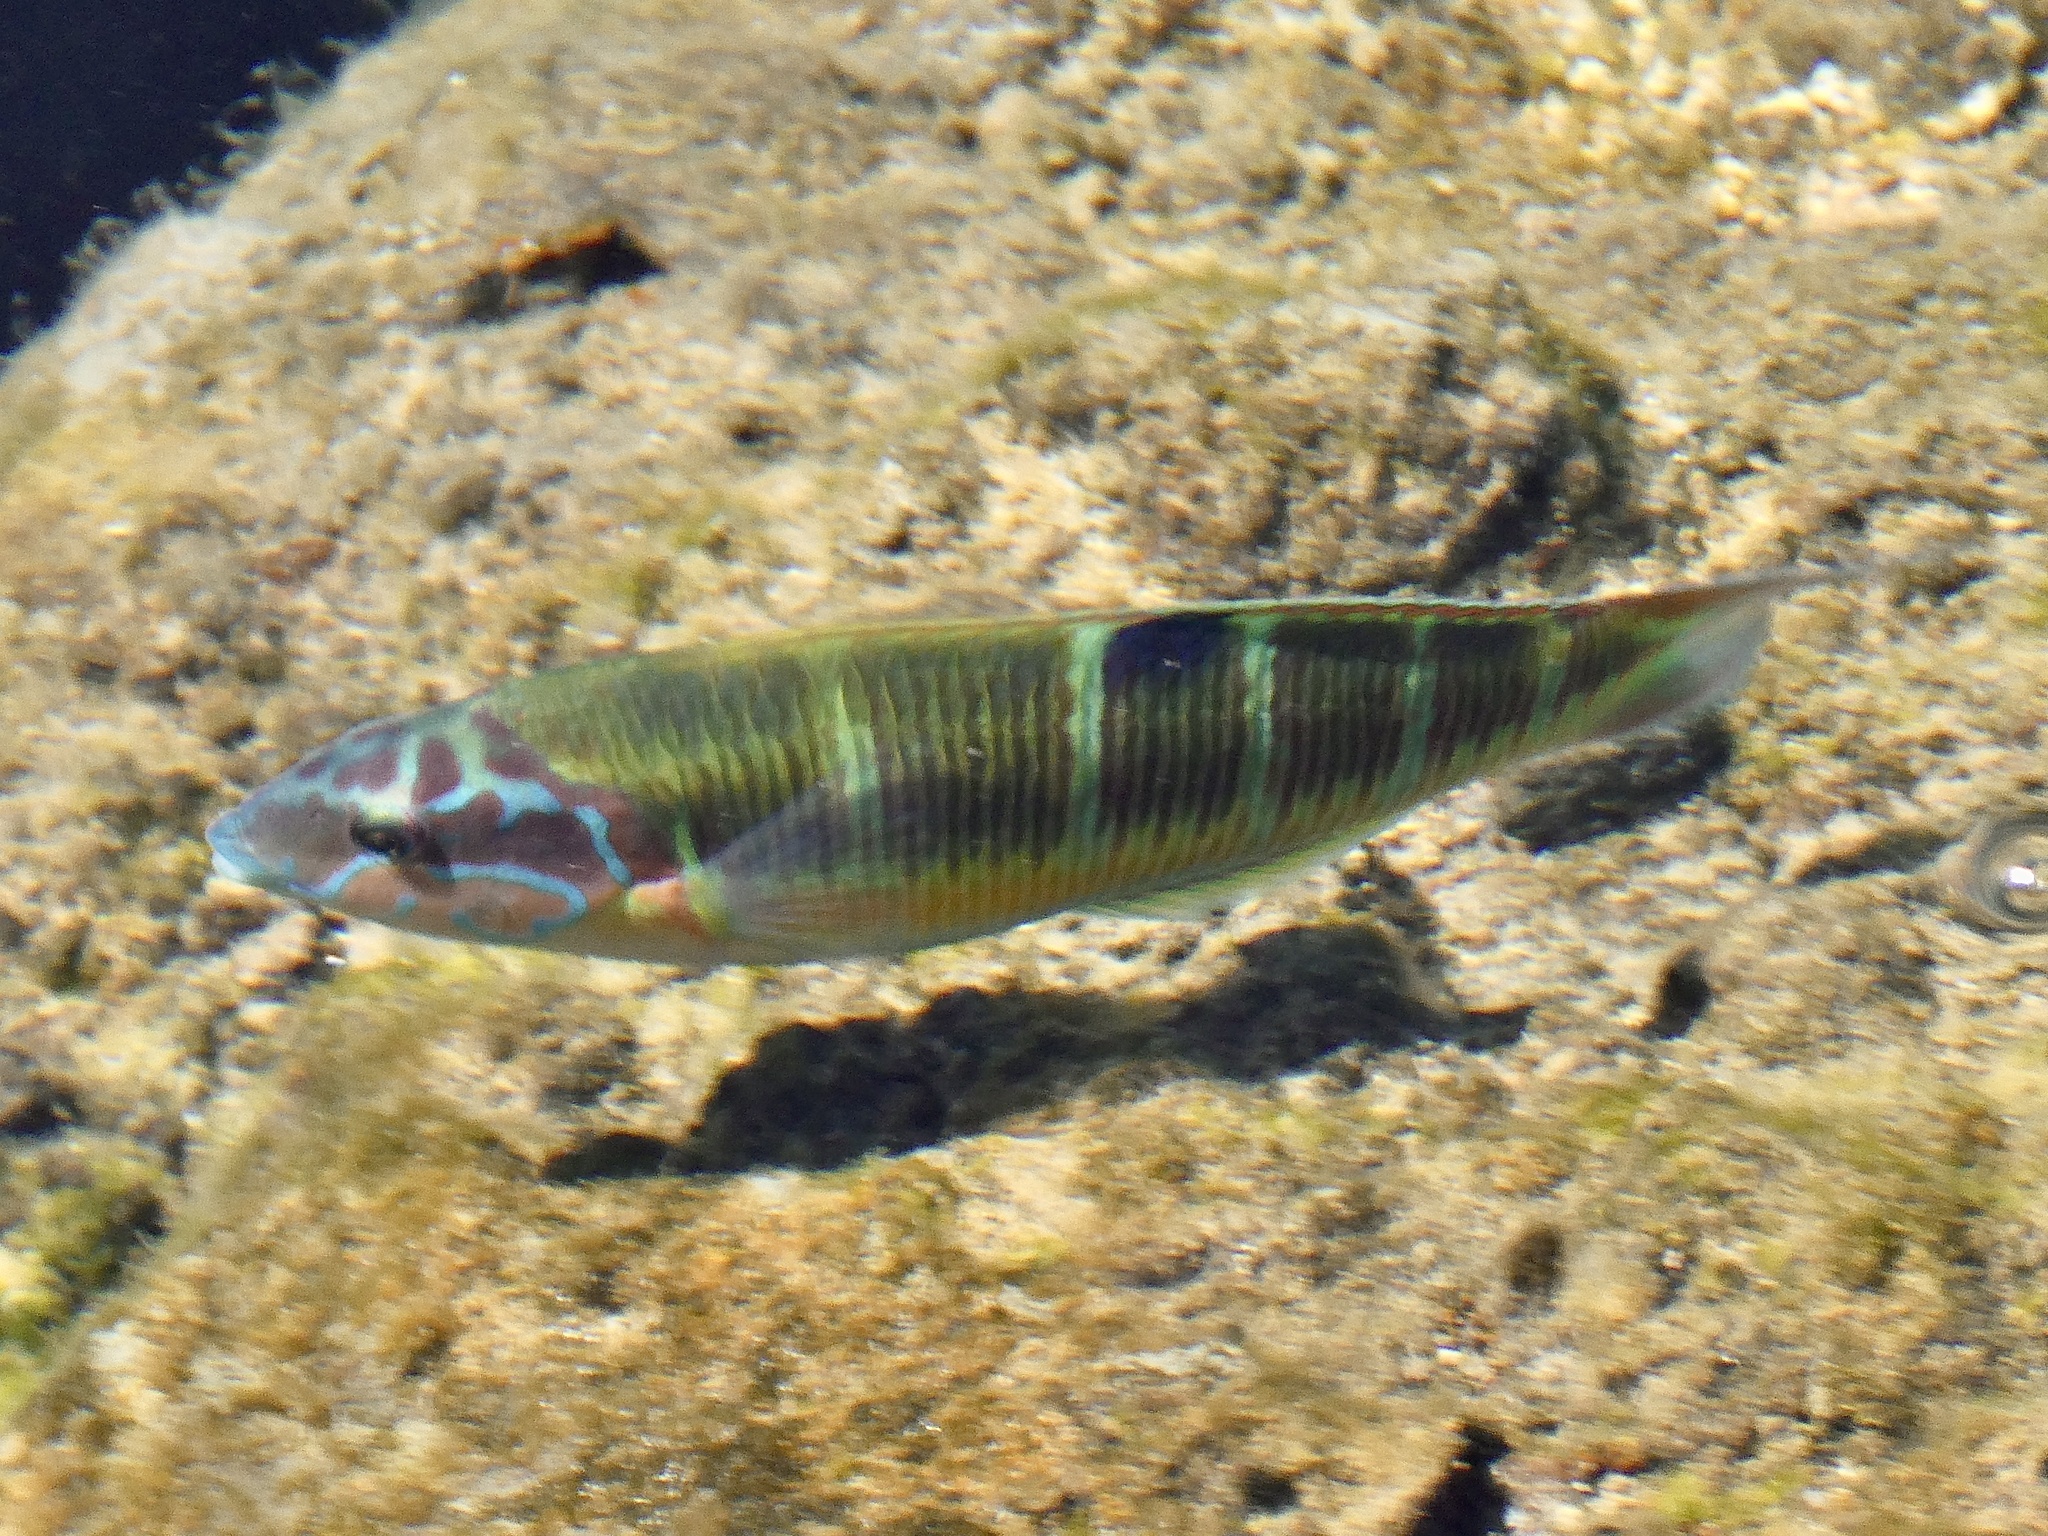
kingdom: Animalia
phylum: Chordata
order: Perciformes
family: Labridae
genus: Thalassoma
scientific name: Thalassoma pavo
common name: Ornate wrasse
